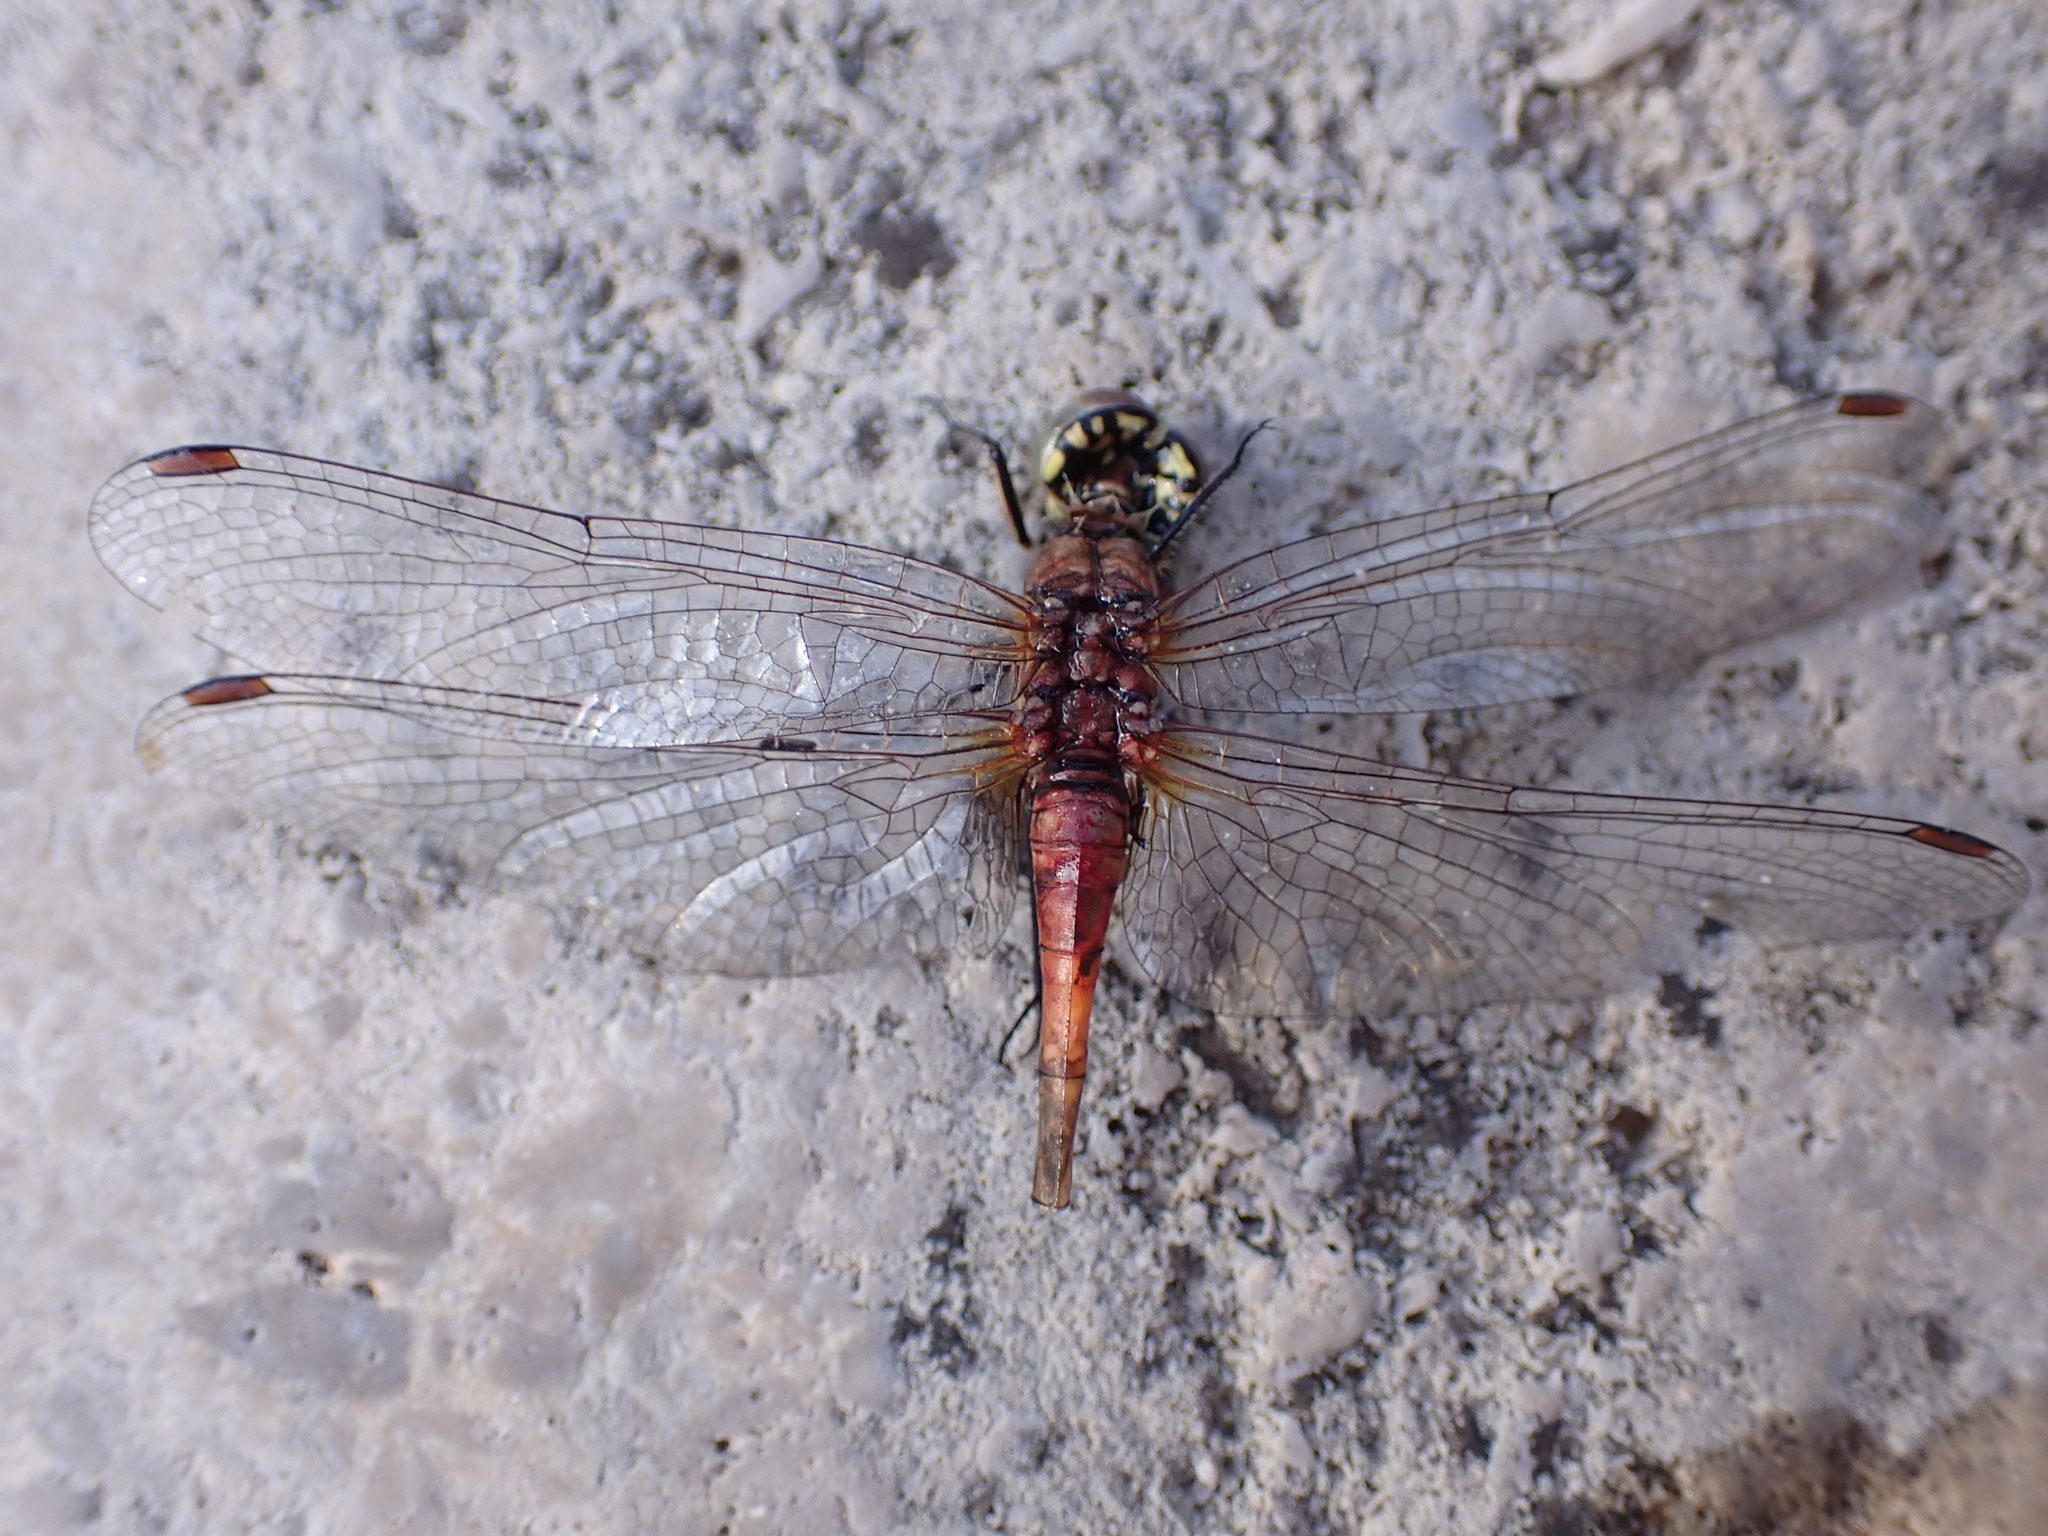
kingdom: Animalia
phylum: Arthropoda
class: Insecta
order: Odonata
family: Libellulidae
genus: Sympetrum
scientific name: Sympetrum sanguineum
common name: Ruddy darter
